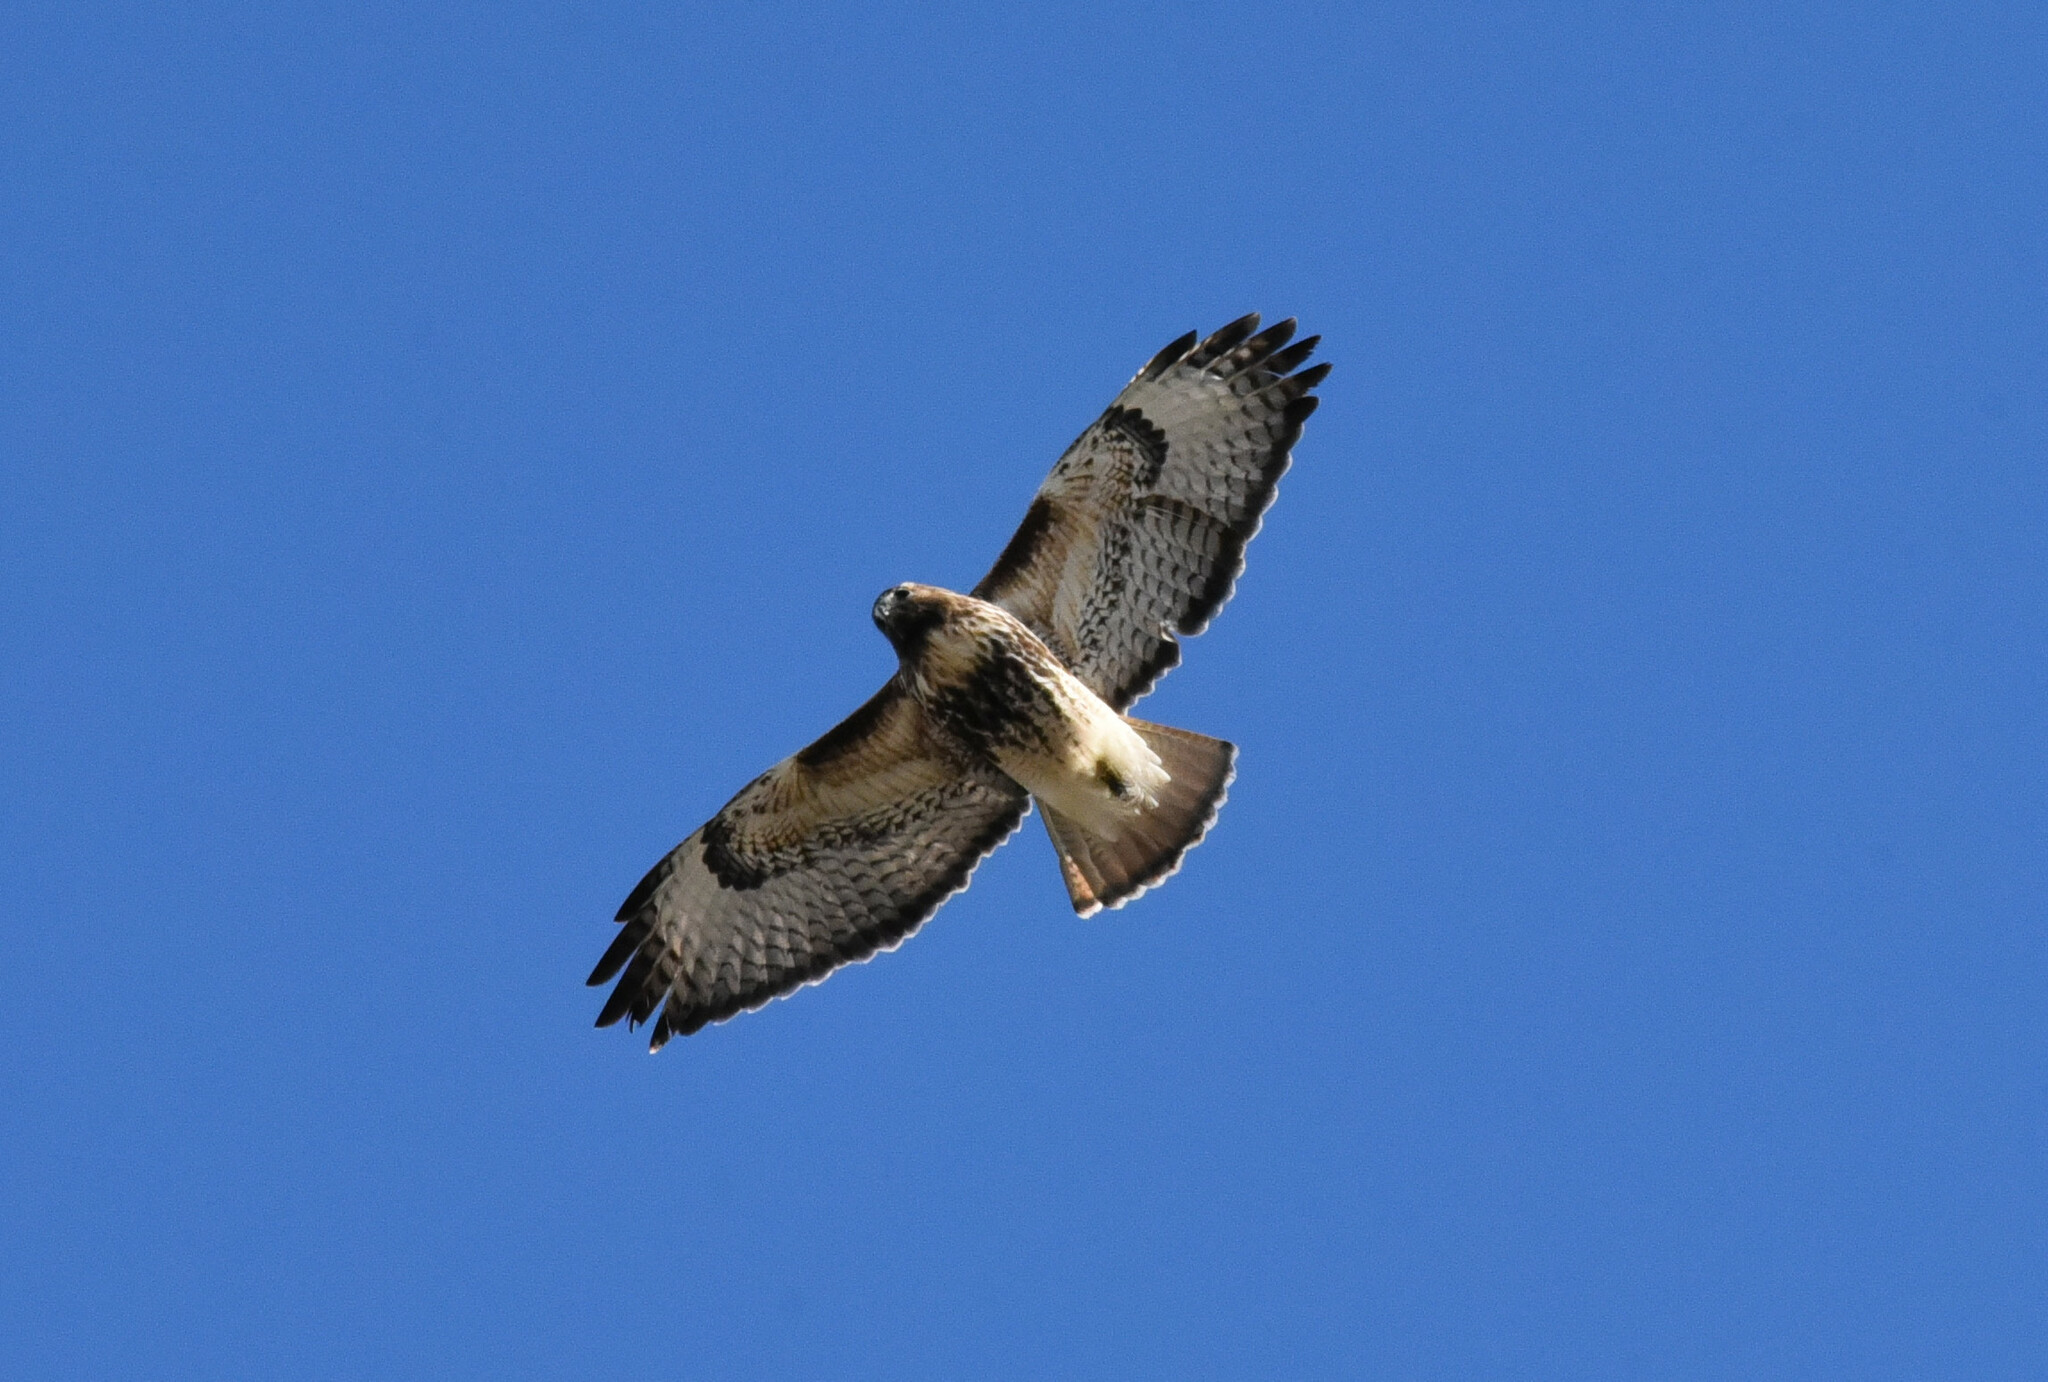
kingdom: Animalia
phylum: Chordata
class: Aves
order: Accipitriformes
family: Accipitridae
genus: Buteo
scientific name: Buteo jamaicensis
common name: Red-tailed hawk
